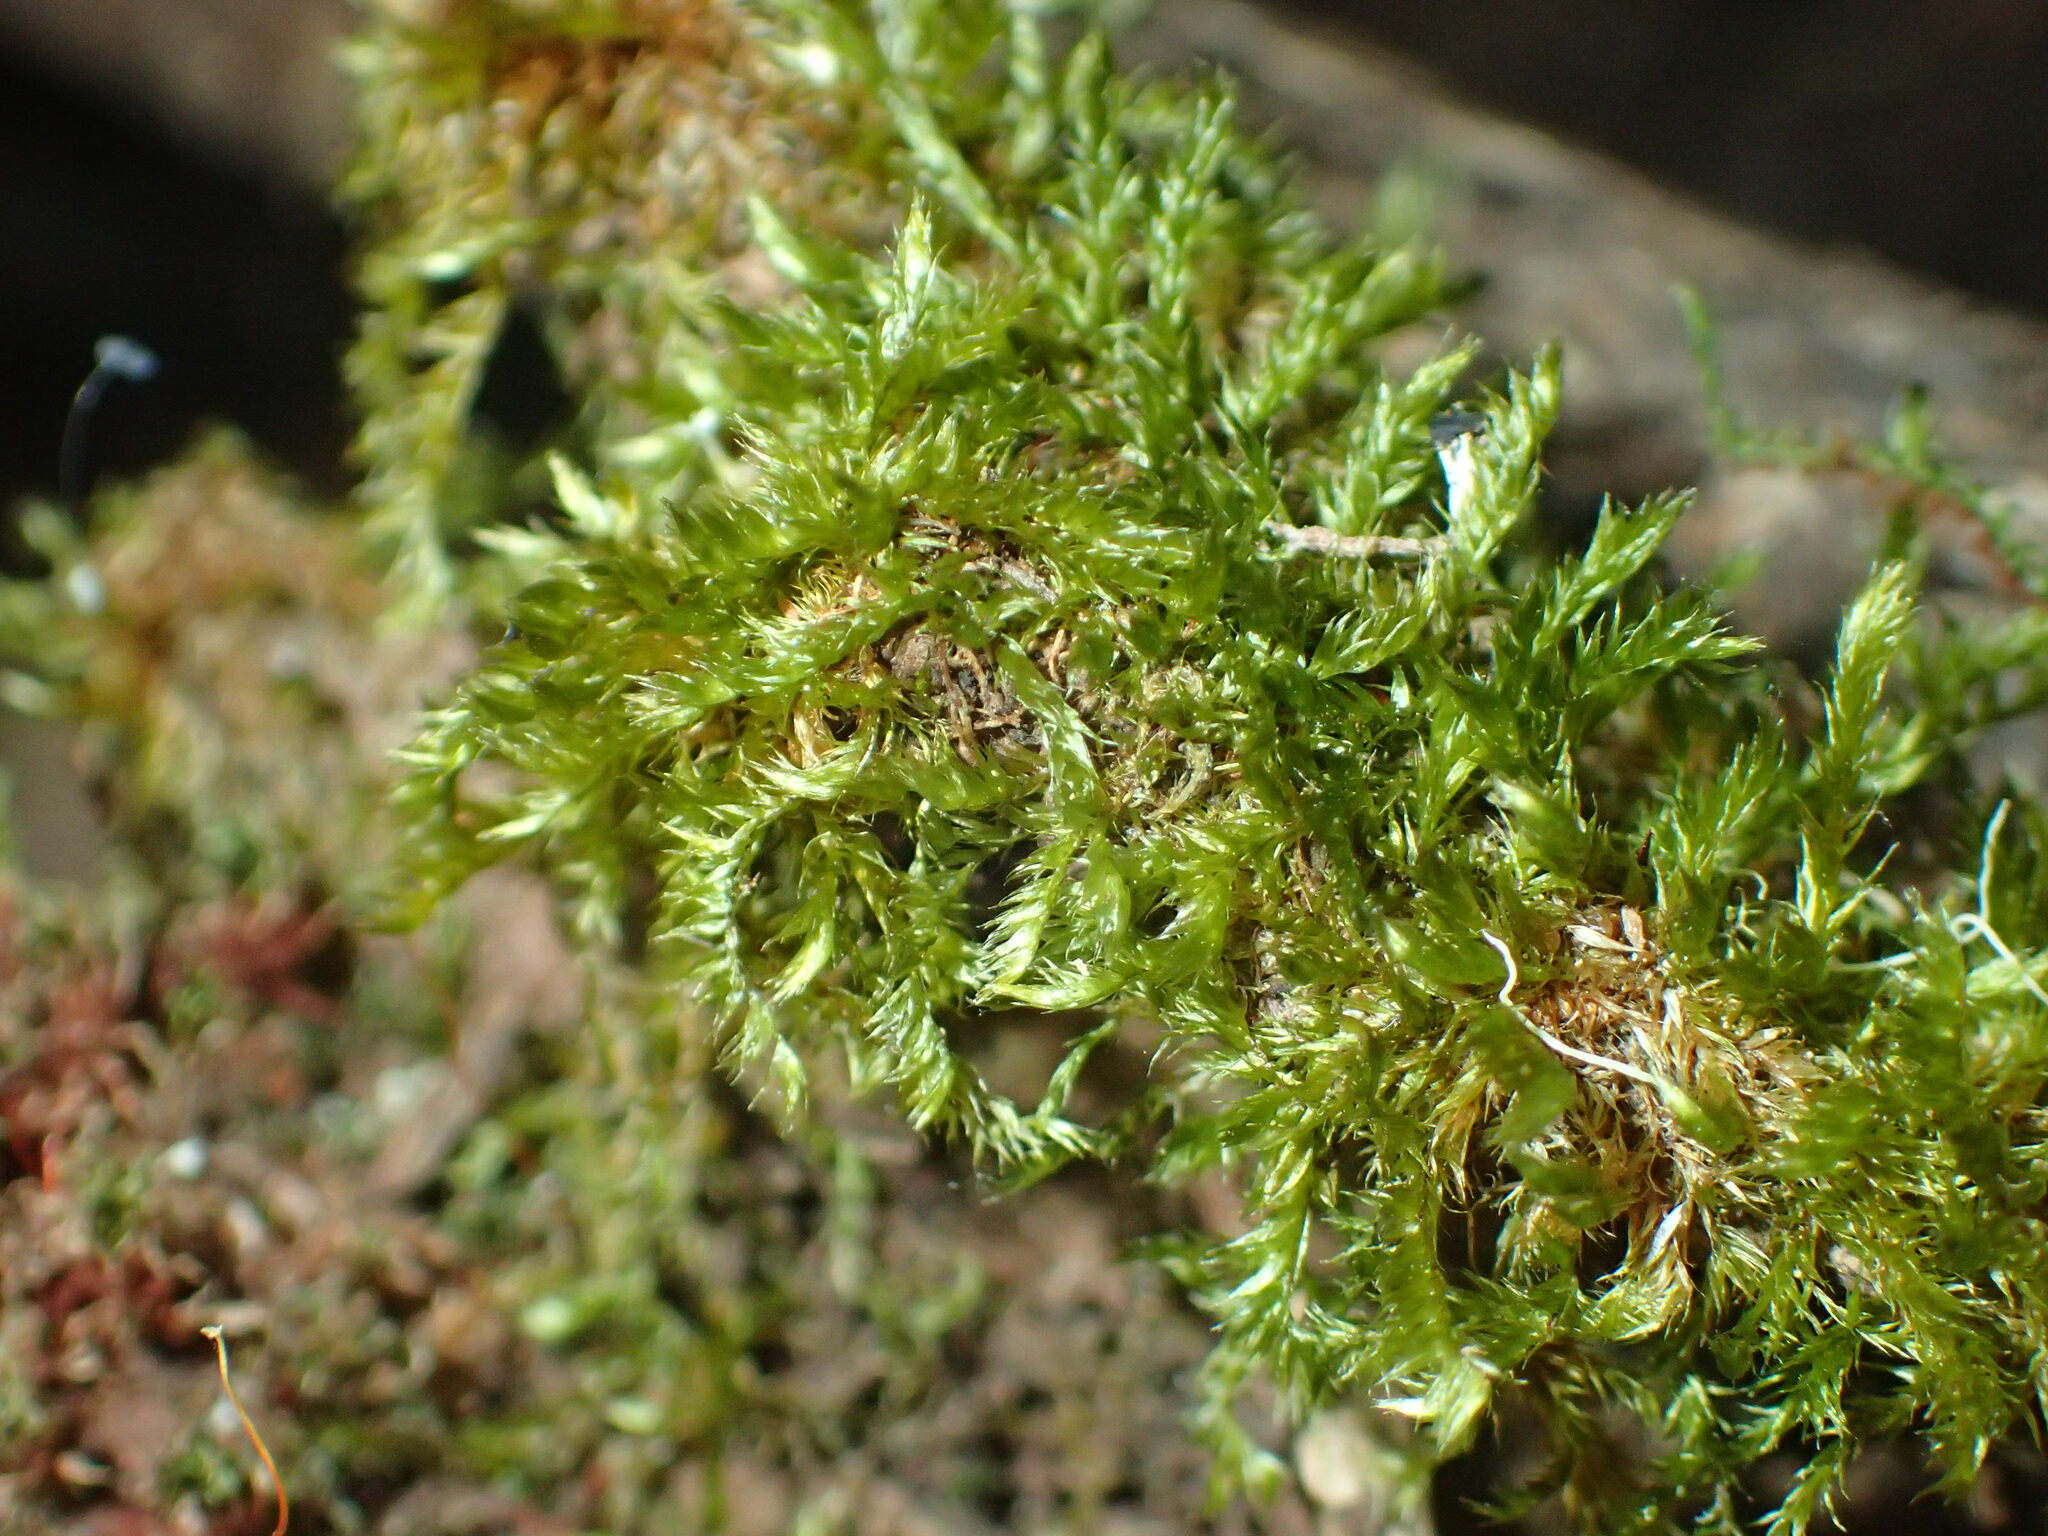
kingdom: Plantae
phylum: Bryophyta
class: Bryopsida
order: Hypnales
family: Sematophyllaceae
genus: Sematophyllum
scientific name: Sematophyllum homomallum
